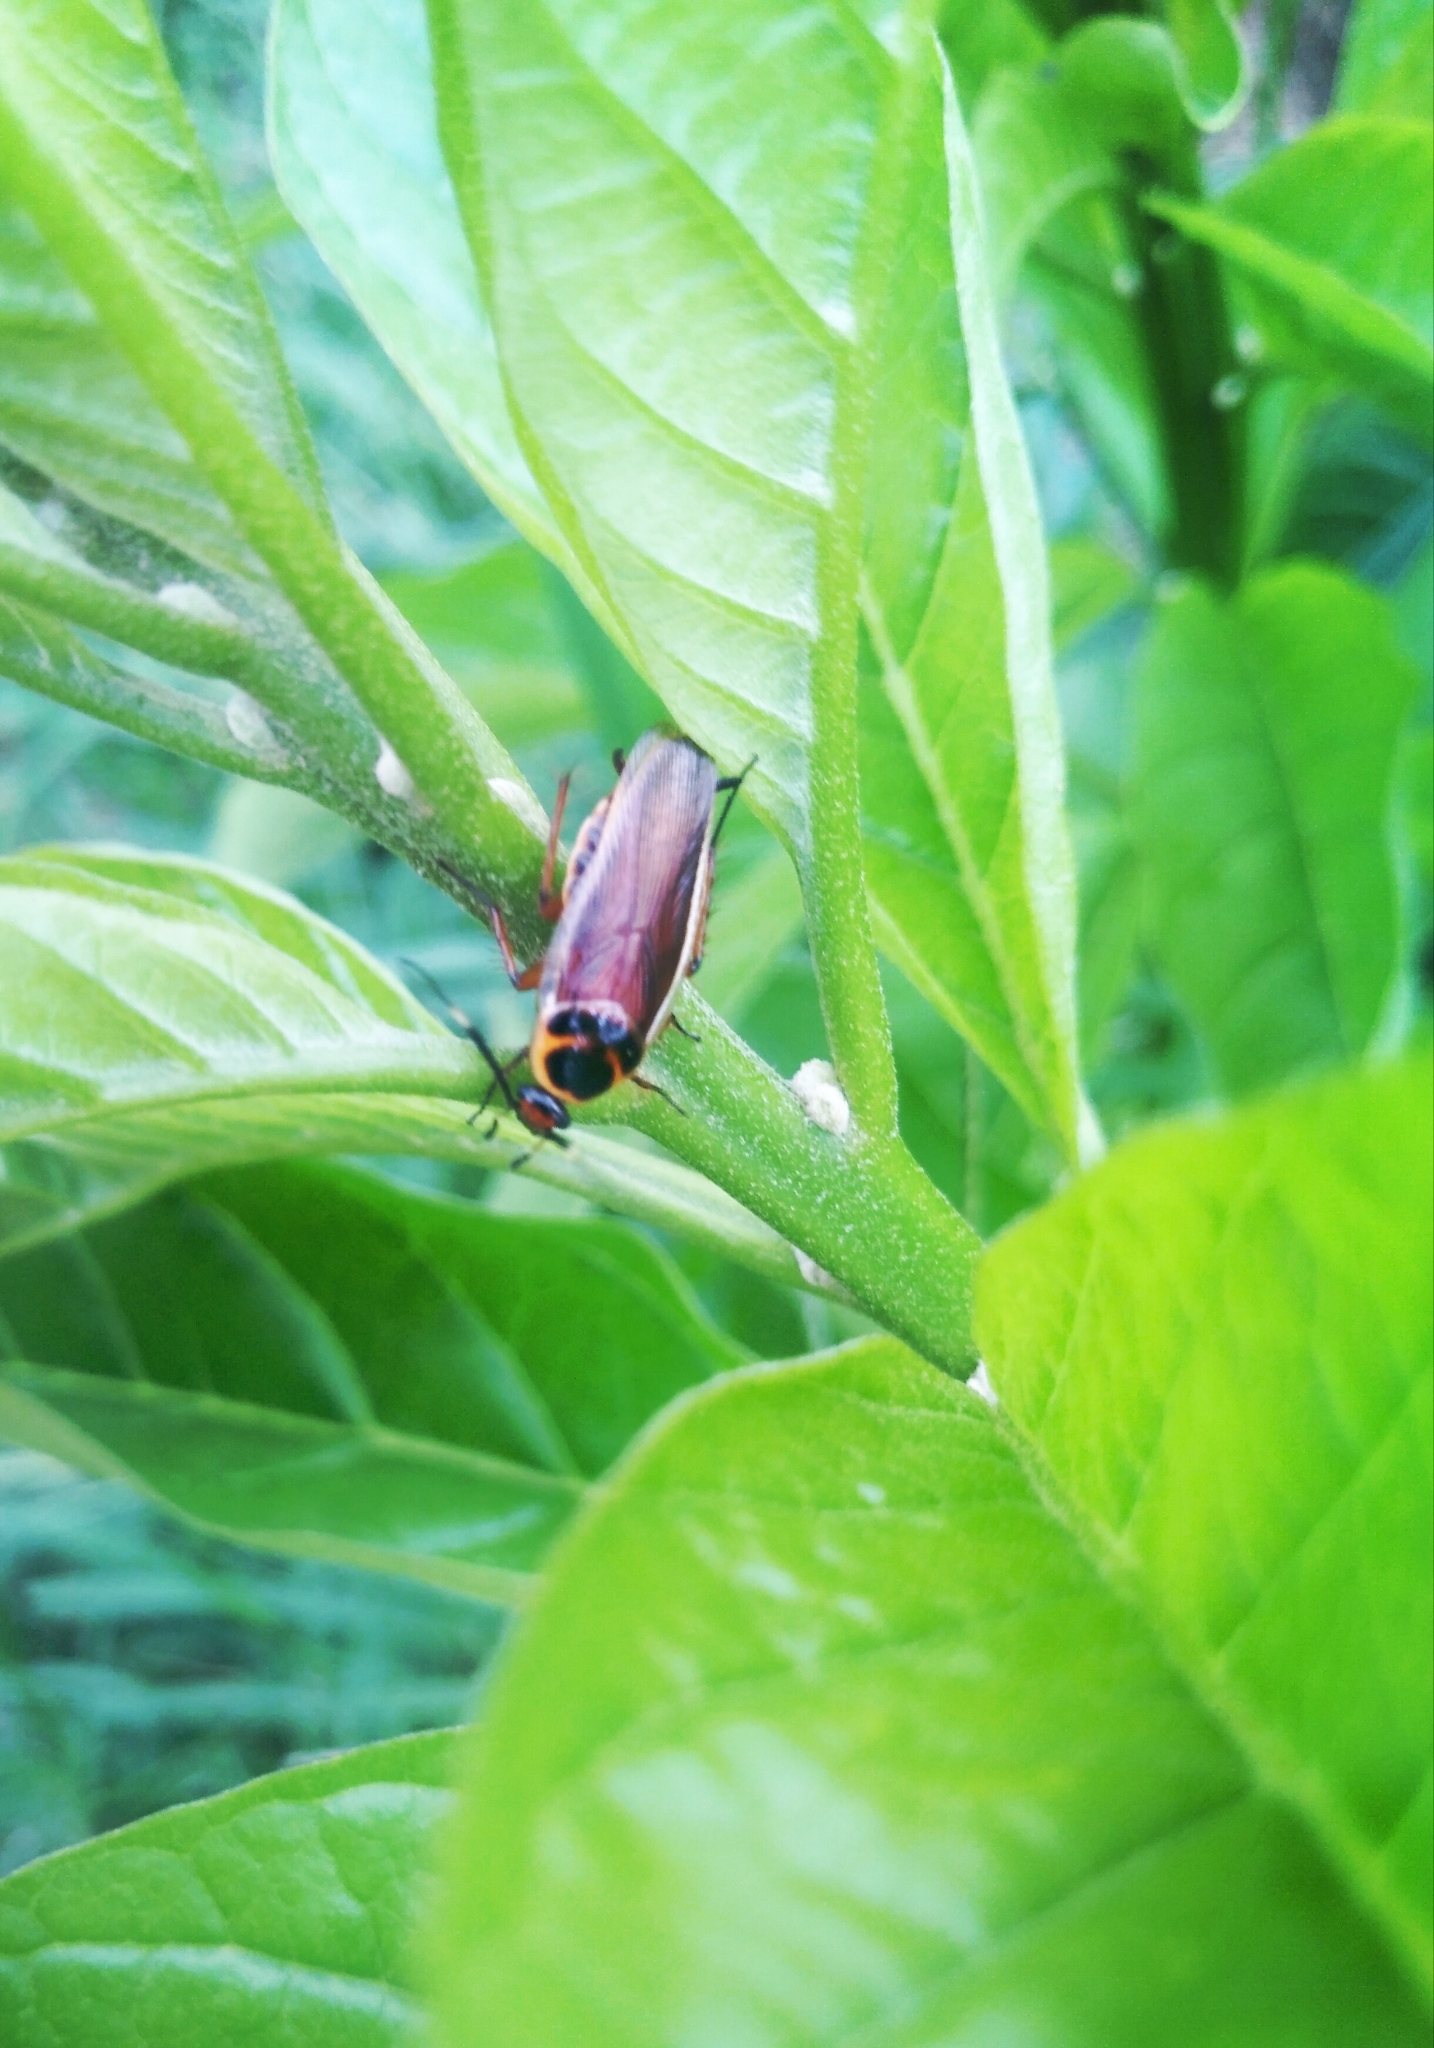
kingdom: Animalia
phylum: Arthropoda
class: Insecta
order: Blattodea
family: Ectobiidae
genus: Pseudomops
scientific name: Pseudomops interceptus
